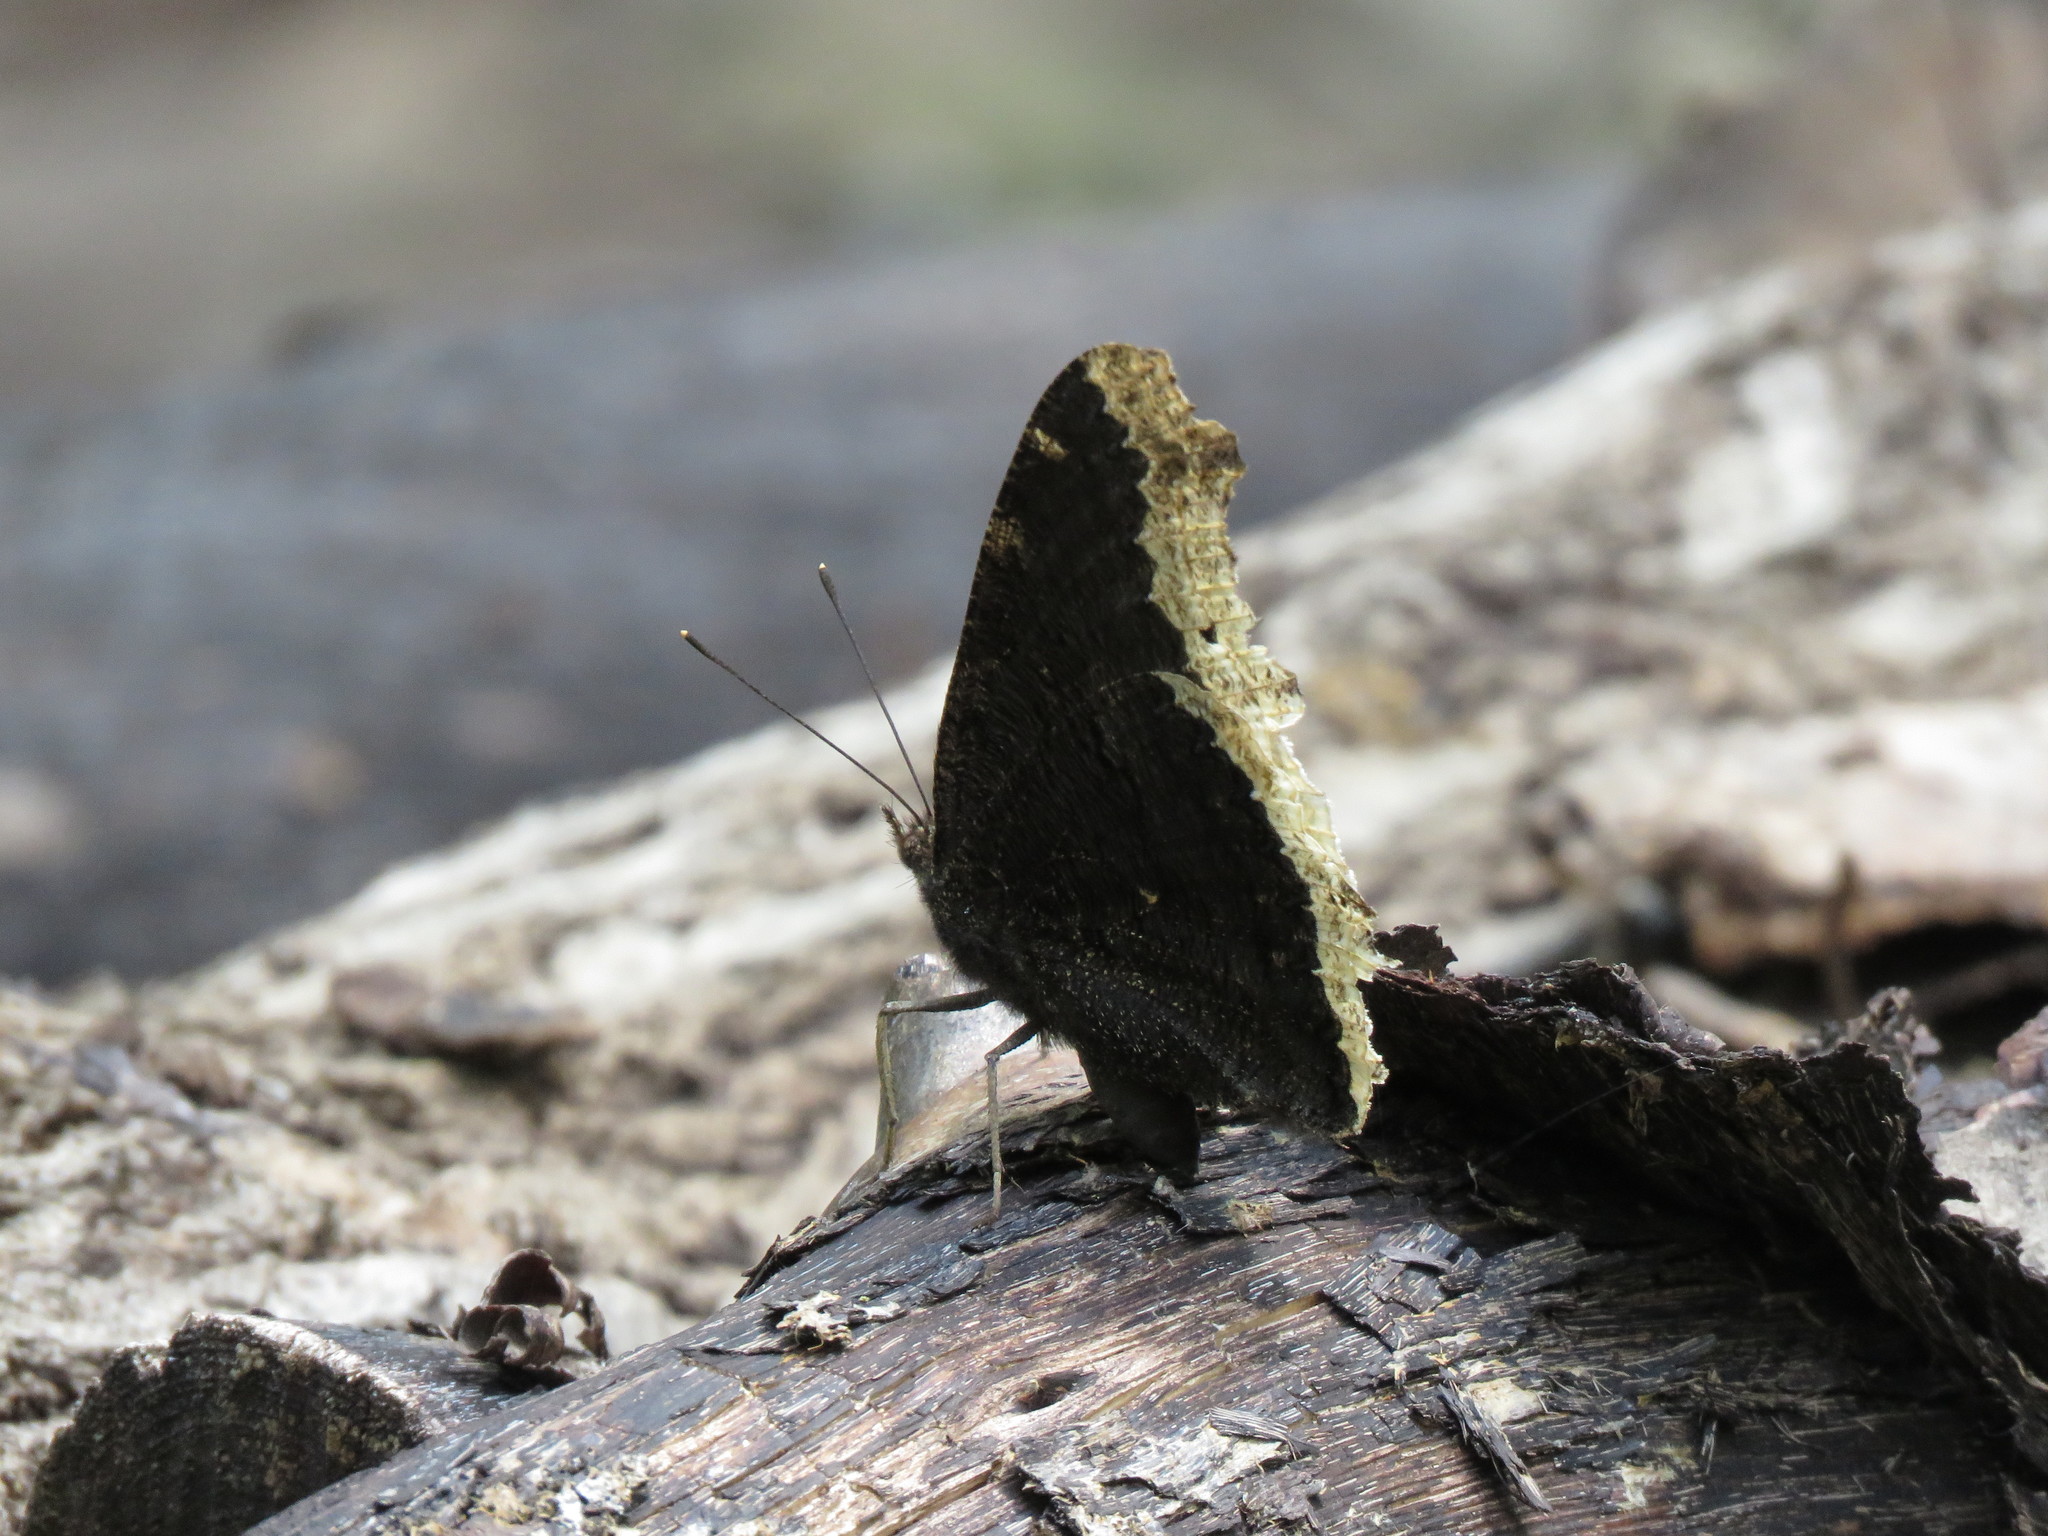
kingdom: Animalia
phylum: Arthropoda
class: Insecta
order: Lepidoptera
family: Nymphalidae
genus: Nymphalis
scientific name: Nymphalis antiopa
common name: Camberwell beauty
